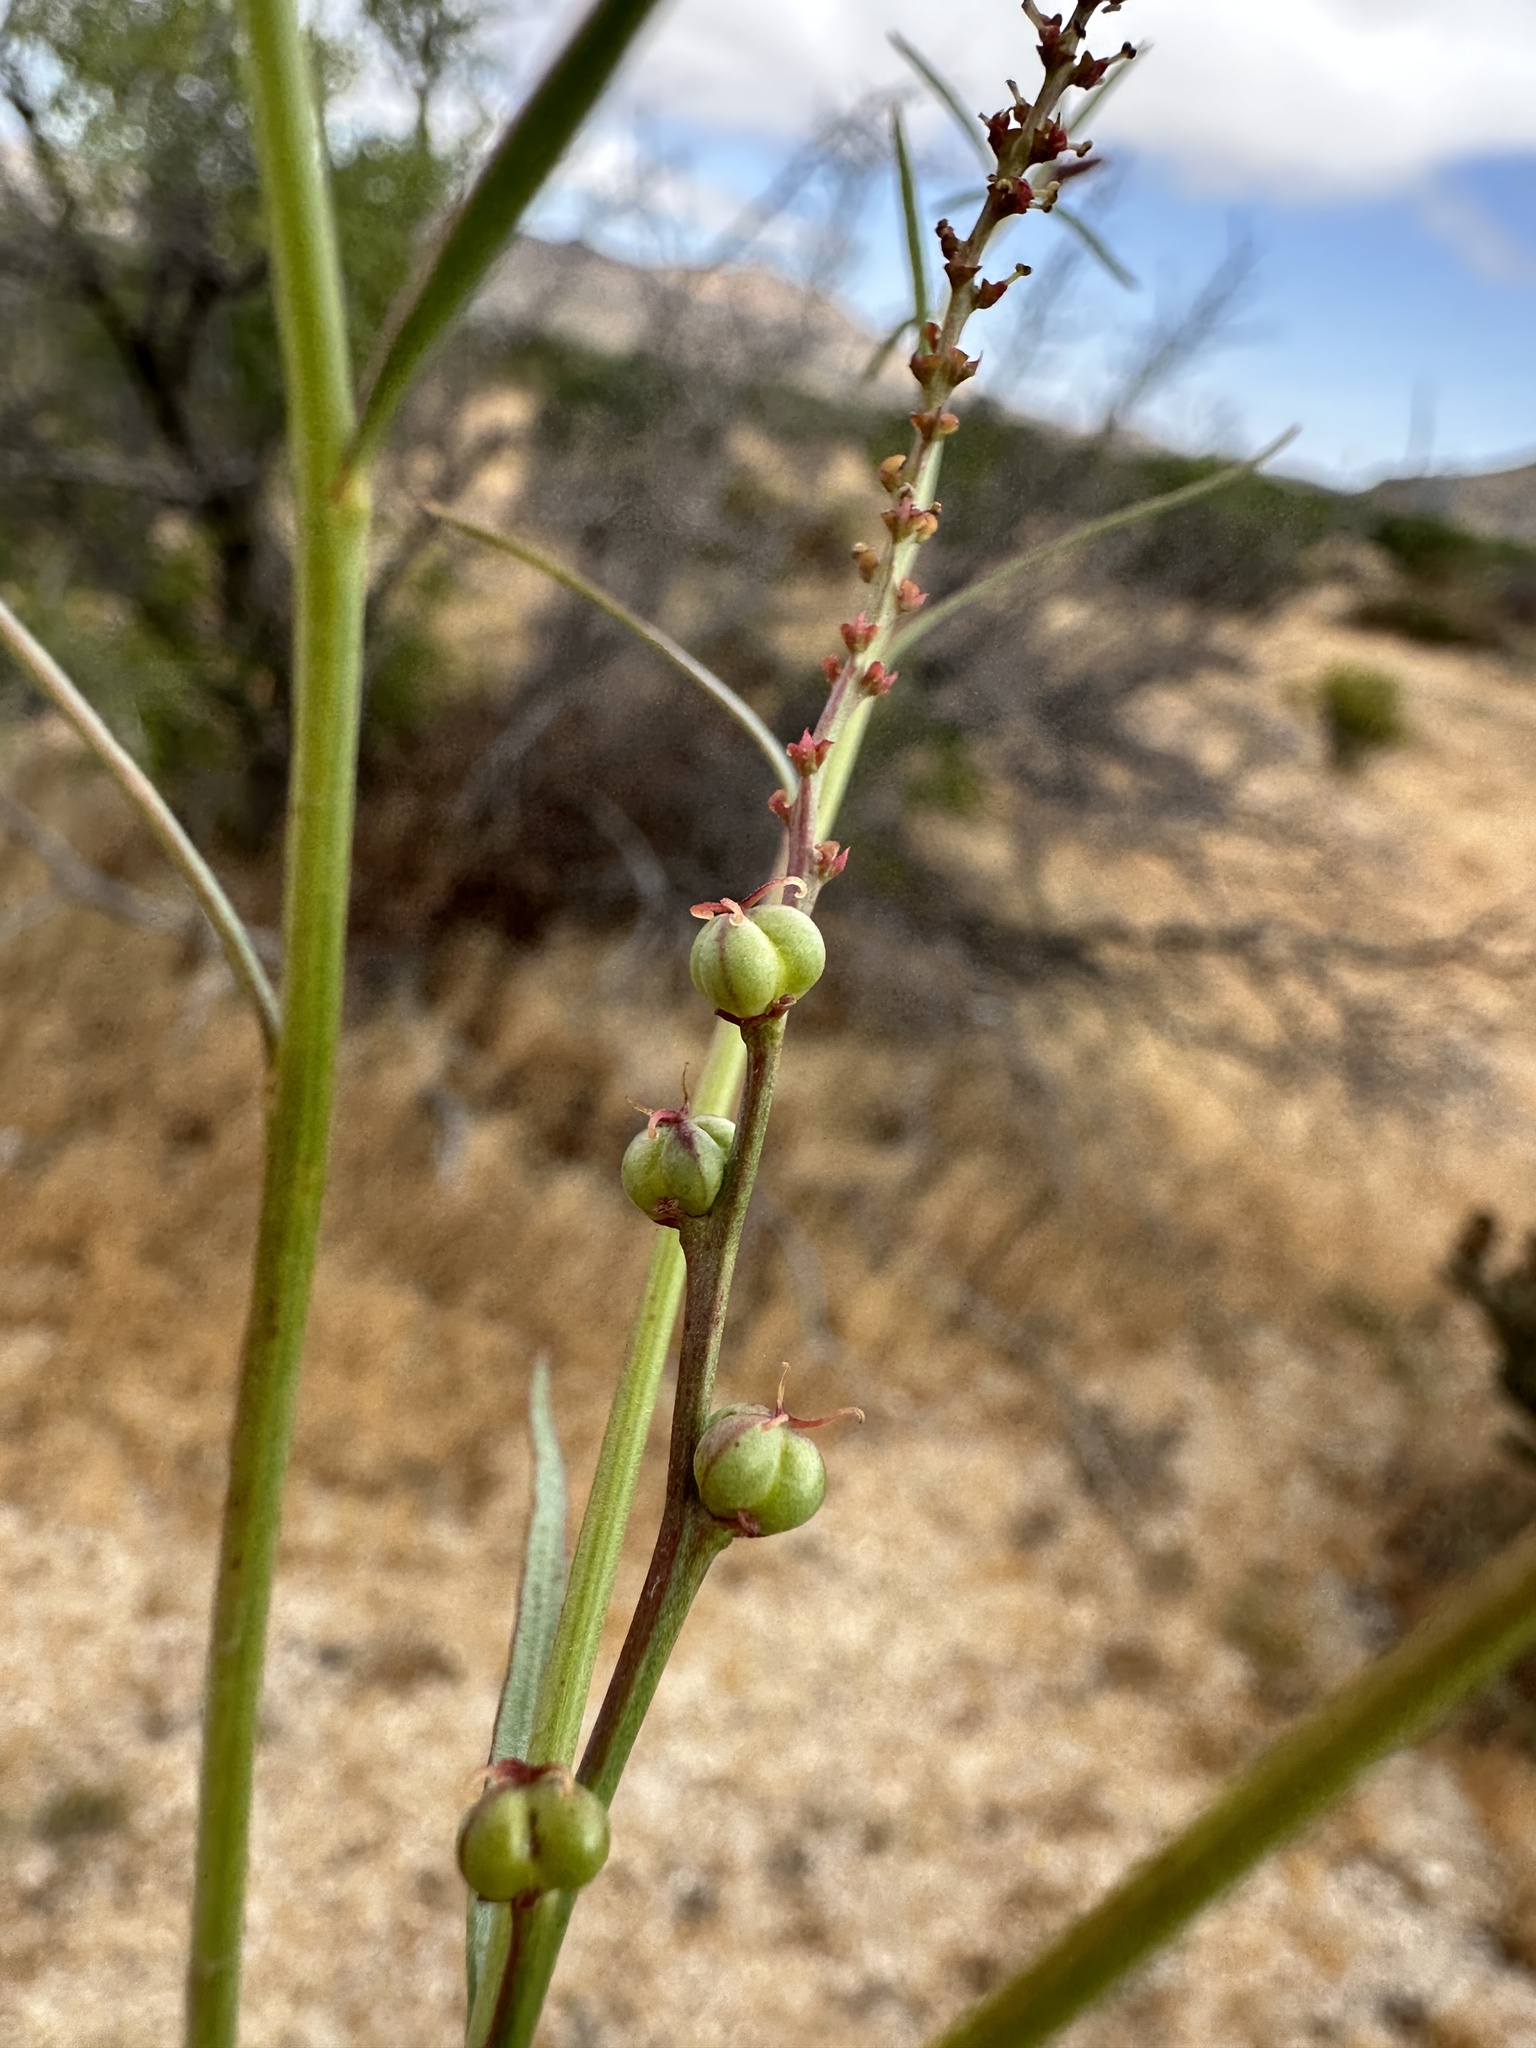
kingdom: Plantae
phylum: Tracheophyta
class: Magnoliopsida
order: Malpighiales
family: Euphorbiaceae
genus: Stillingia
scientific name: Stillingia linearifolia
